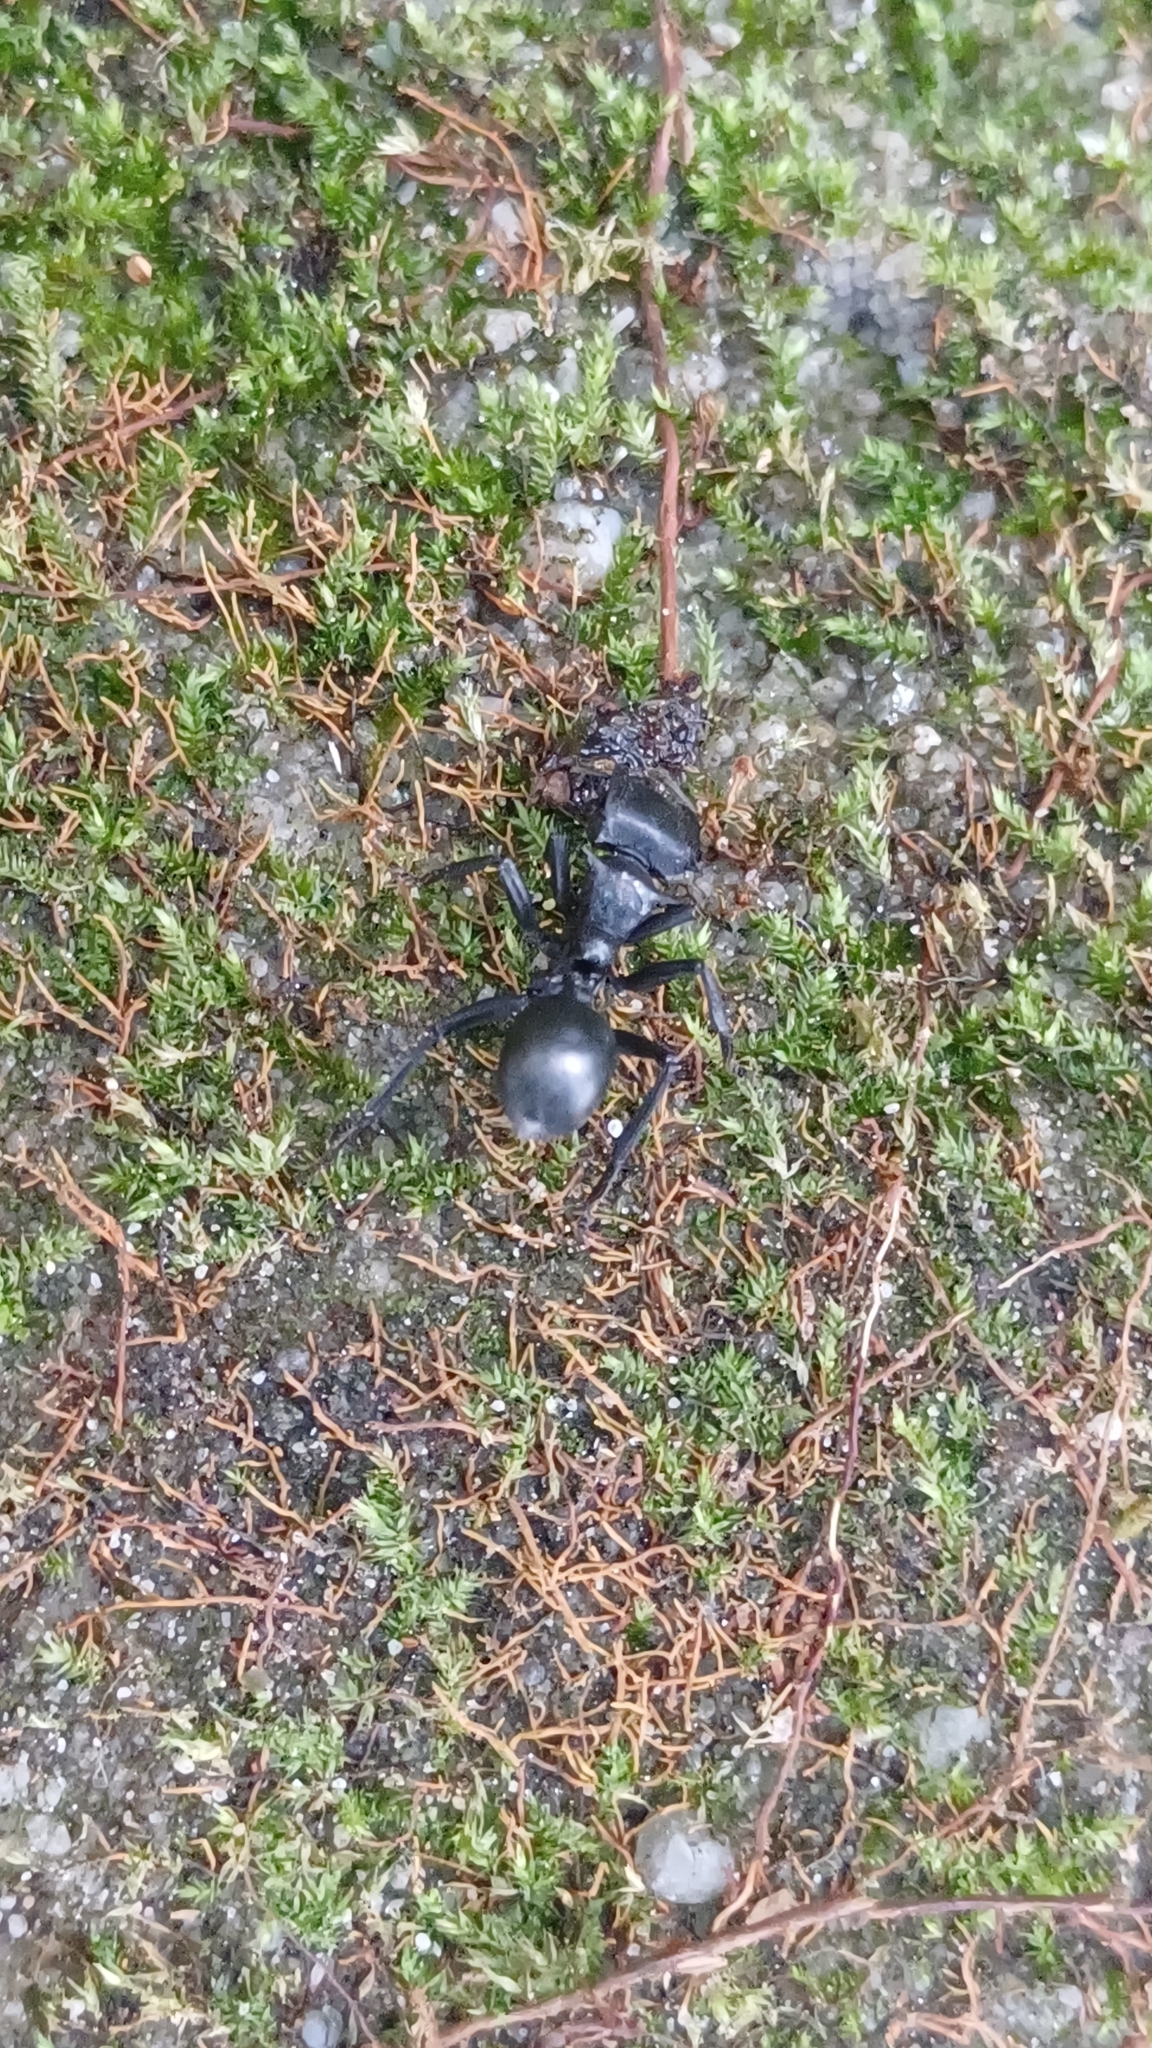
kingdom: Animalia
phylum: Arthropoda
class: Insecta
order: Hymenoptera
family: Formicidae
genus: Cephalotes
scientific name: Cephalotes atratus
